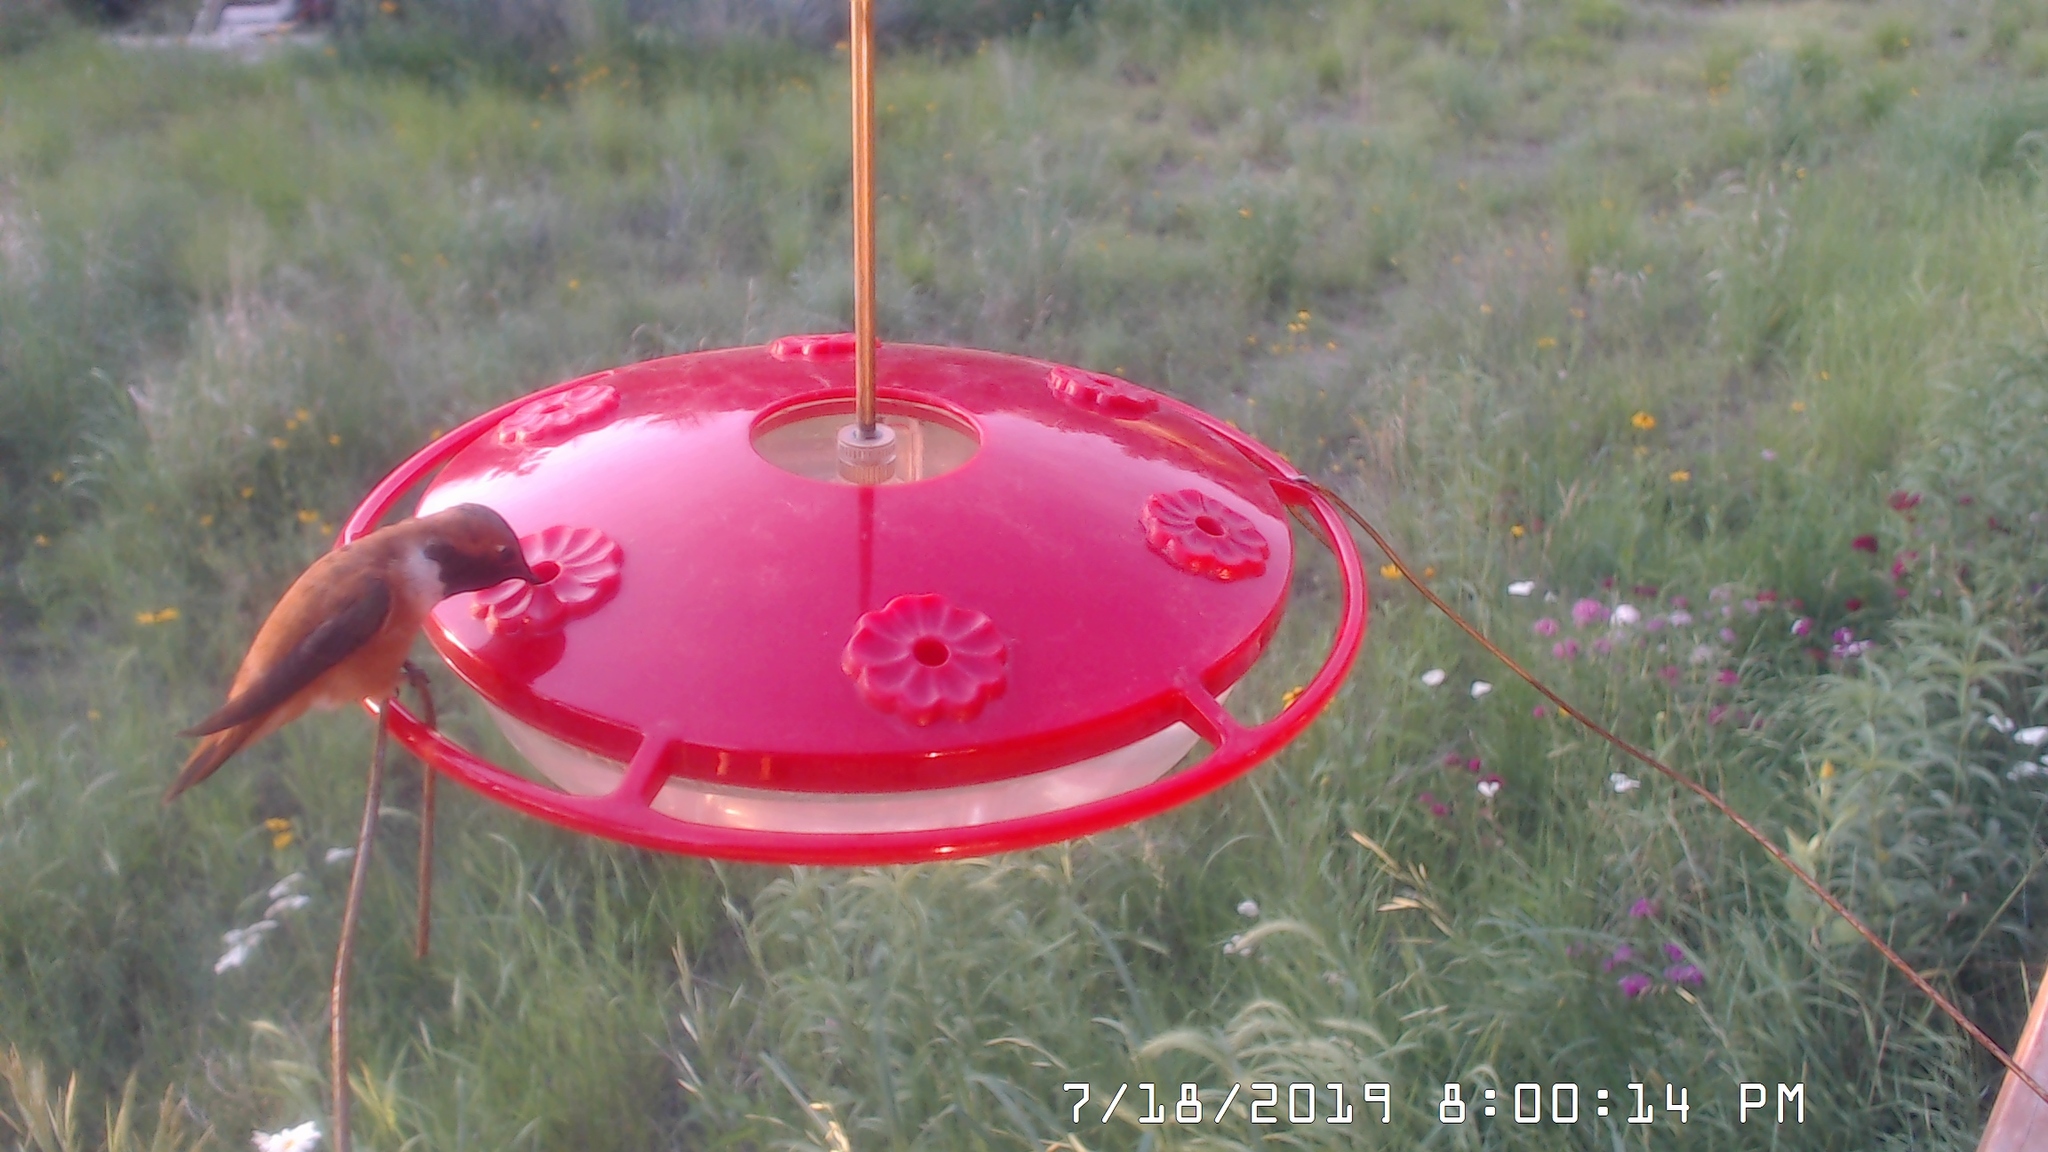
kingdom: Animalia
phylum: Chordata
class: Aves
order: Apodiformes
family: Trochilidae
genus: Selasphorus
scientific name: Selasphorus rufus
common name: Rufous hummingbird
